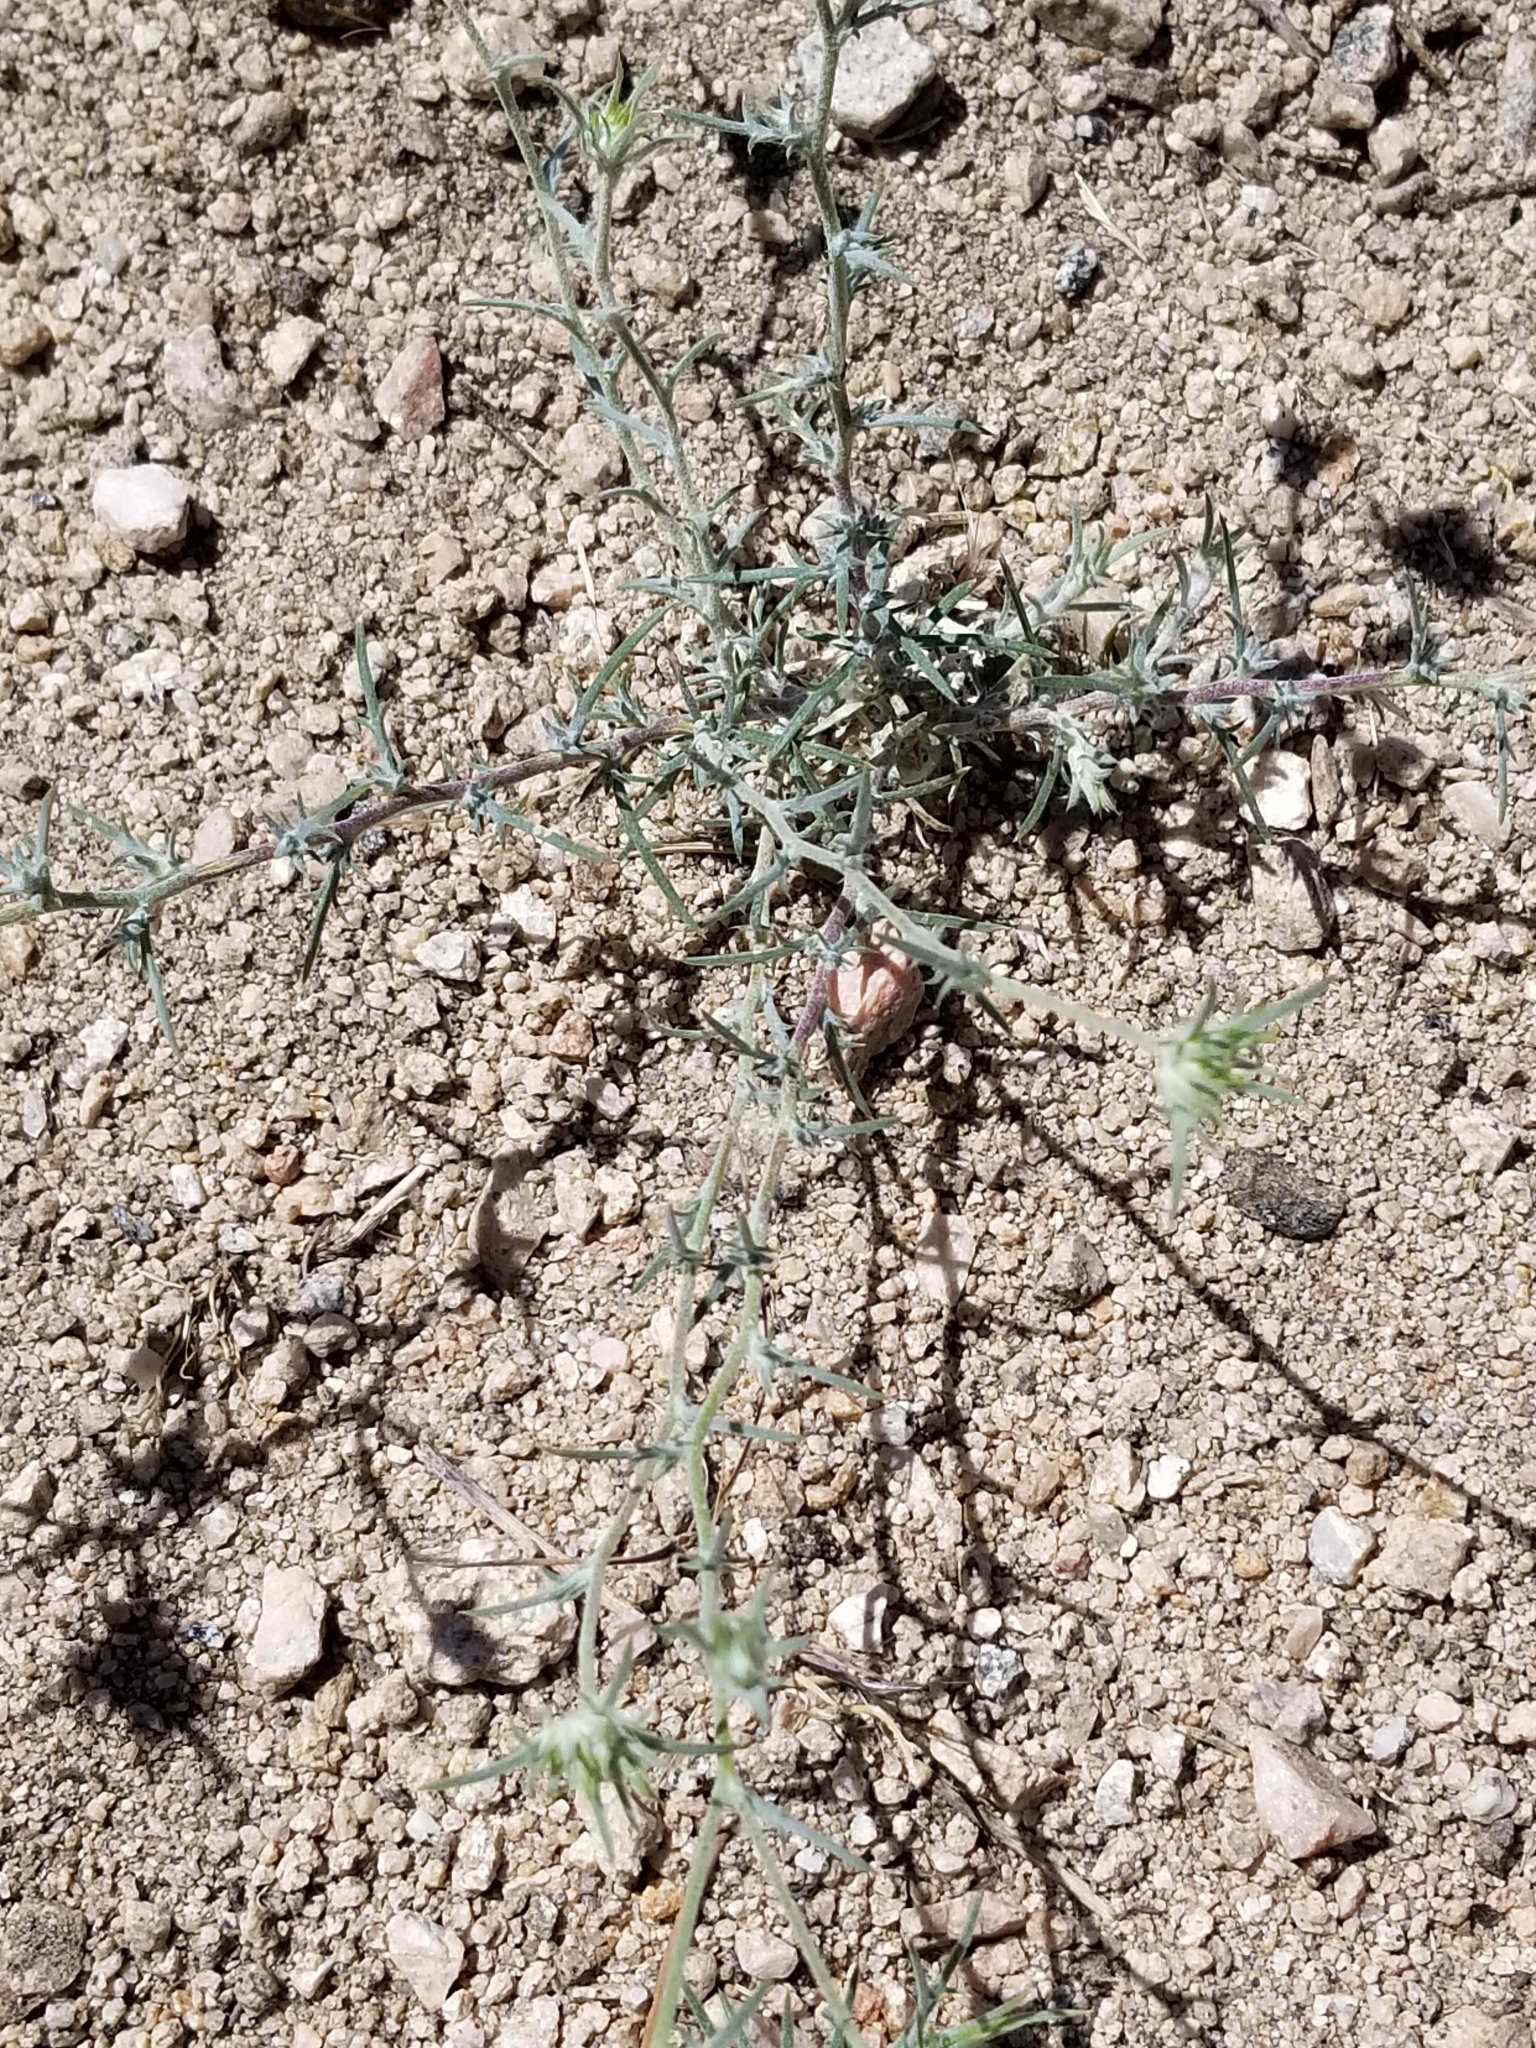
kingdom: Plantae
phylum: Tracheophyta
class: Magnoliopsida
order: Ericales
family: Polemoniaceae
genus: Eriastrum
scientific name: Eriastrum densifolium
